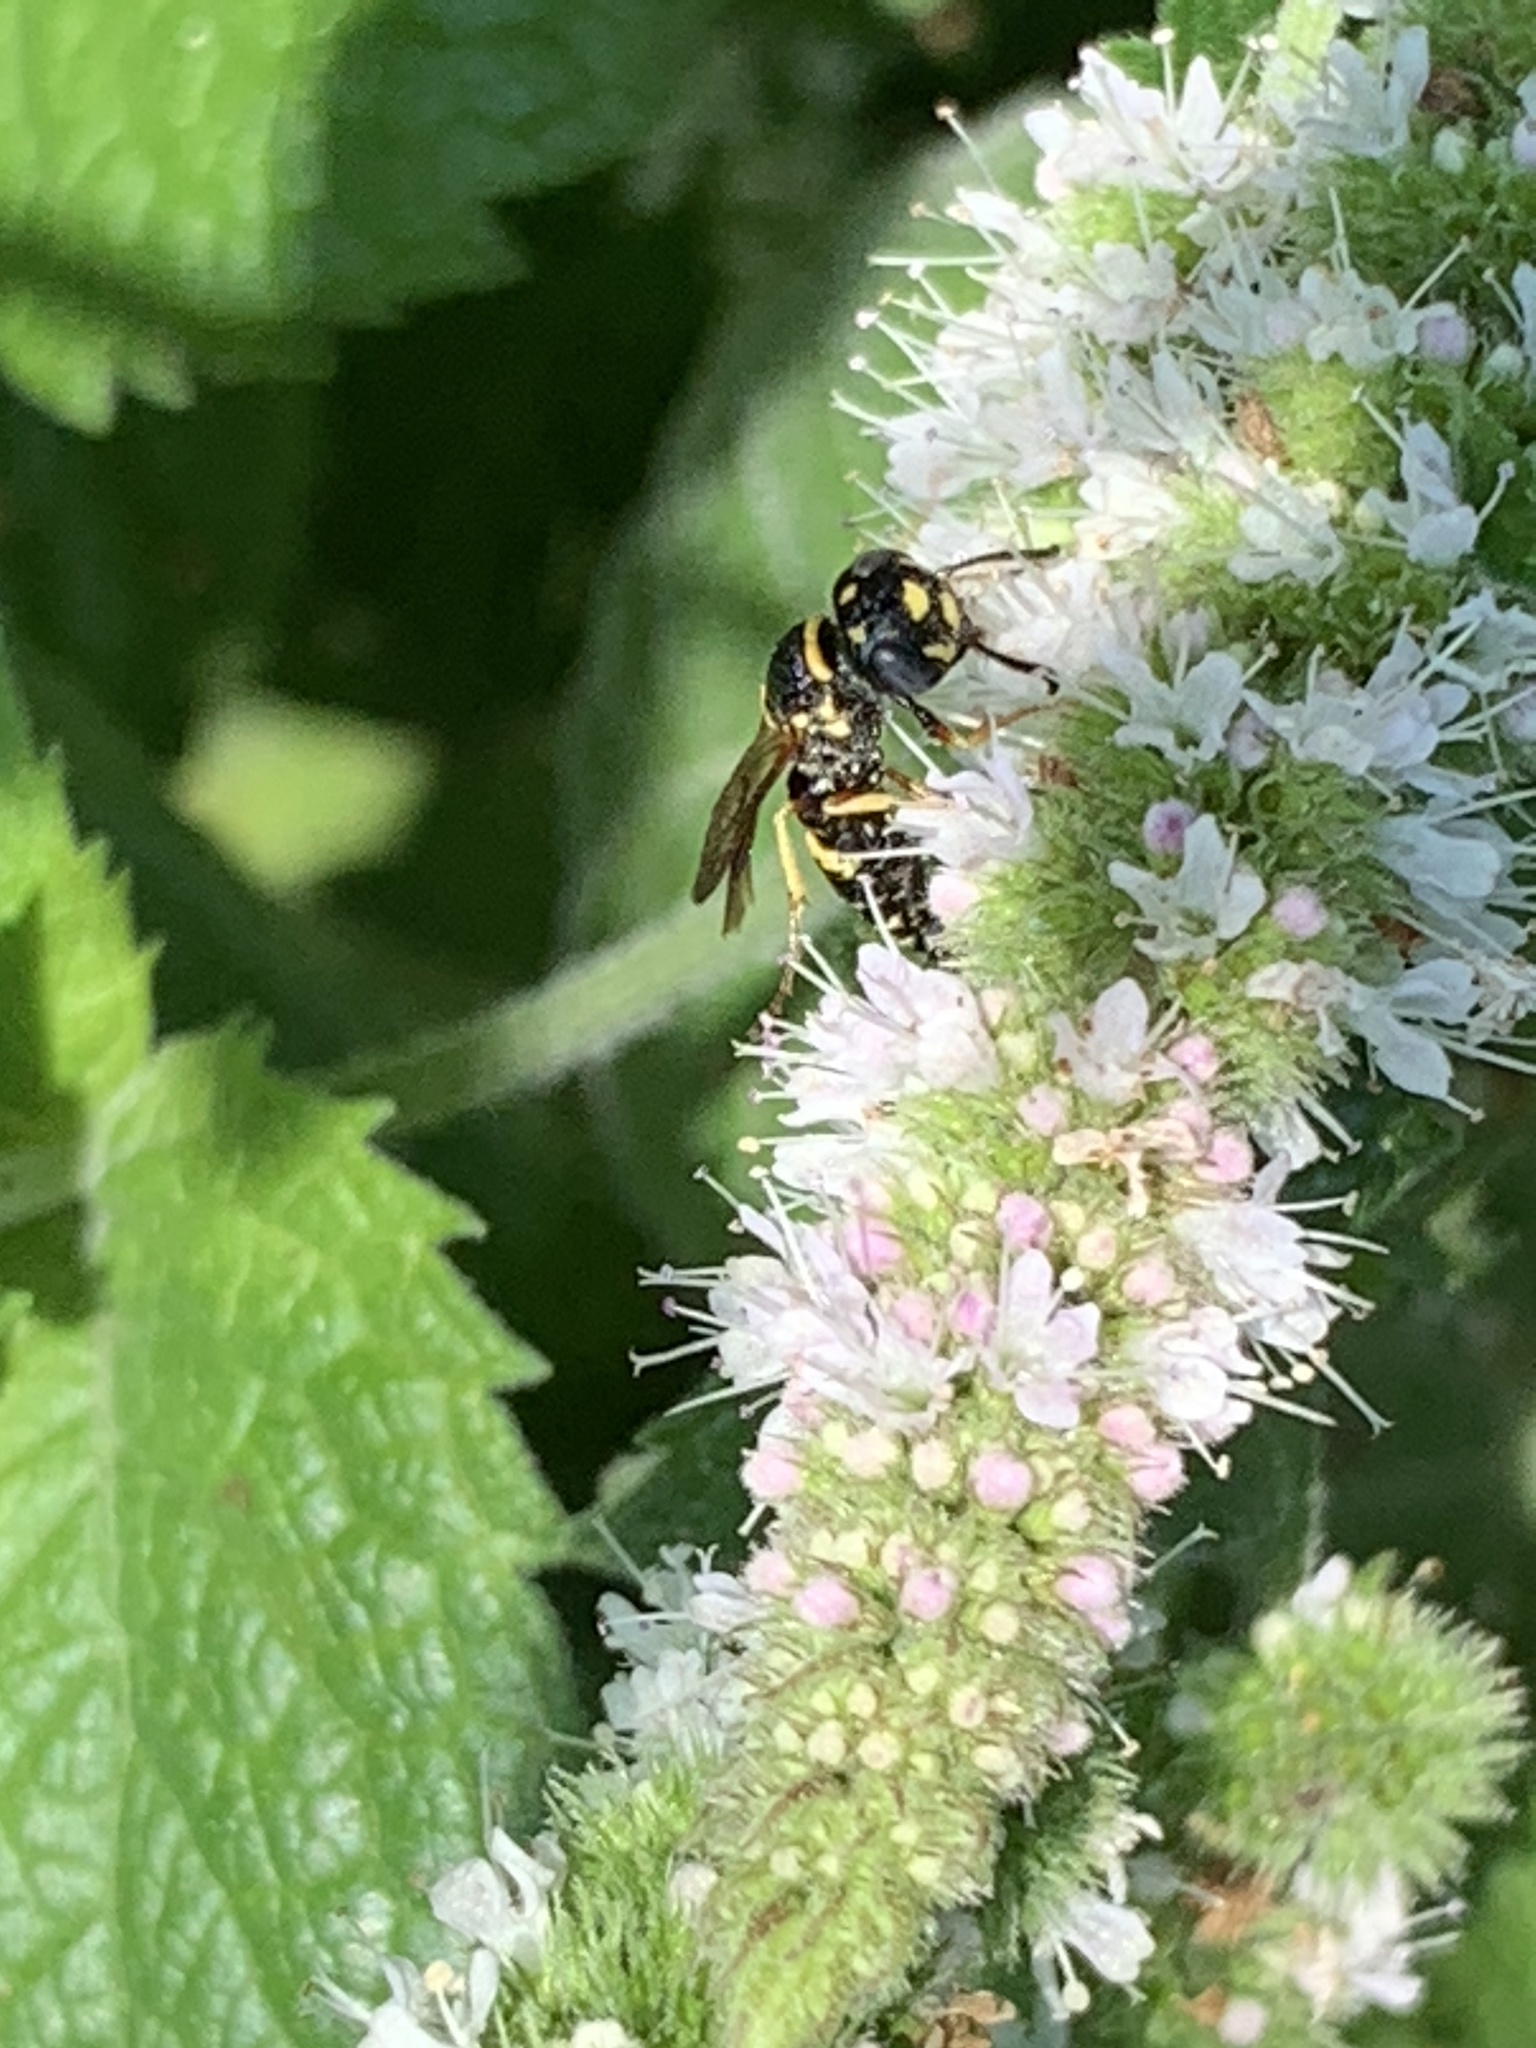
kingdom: Animalia
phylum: Arthropoda
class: Insecta
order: Hymenoptera
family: Crabronidae
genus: Philanthus
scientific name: Philanthus gibbosus
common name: Humped beewolf
